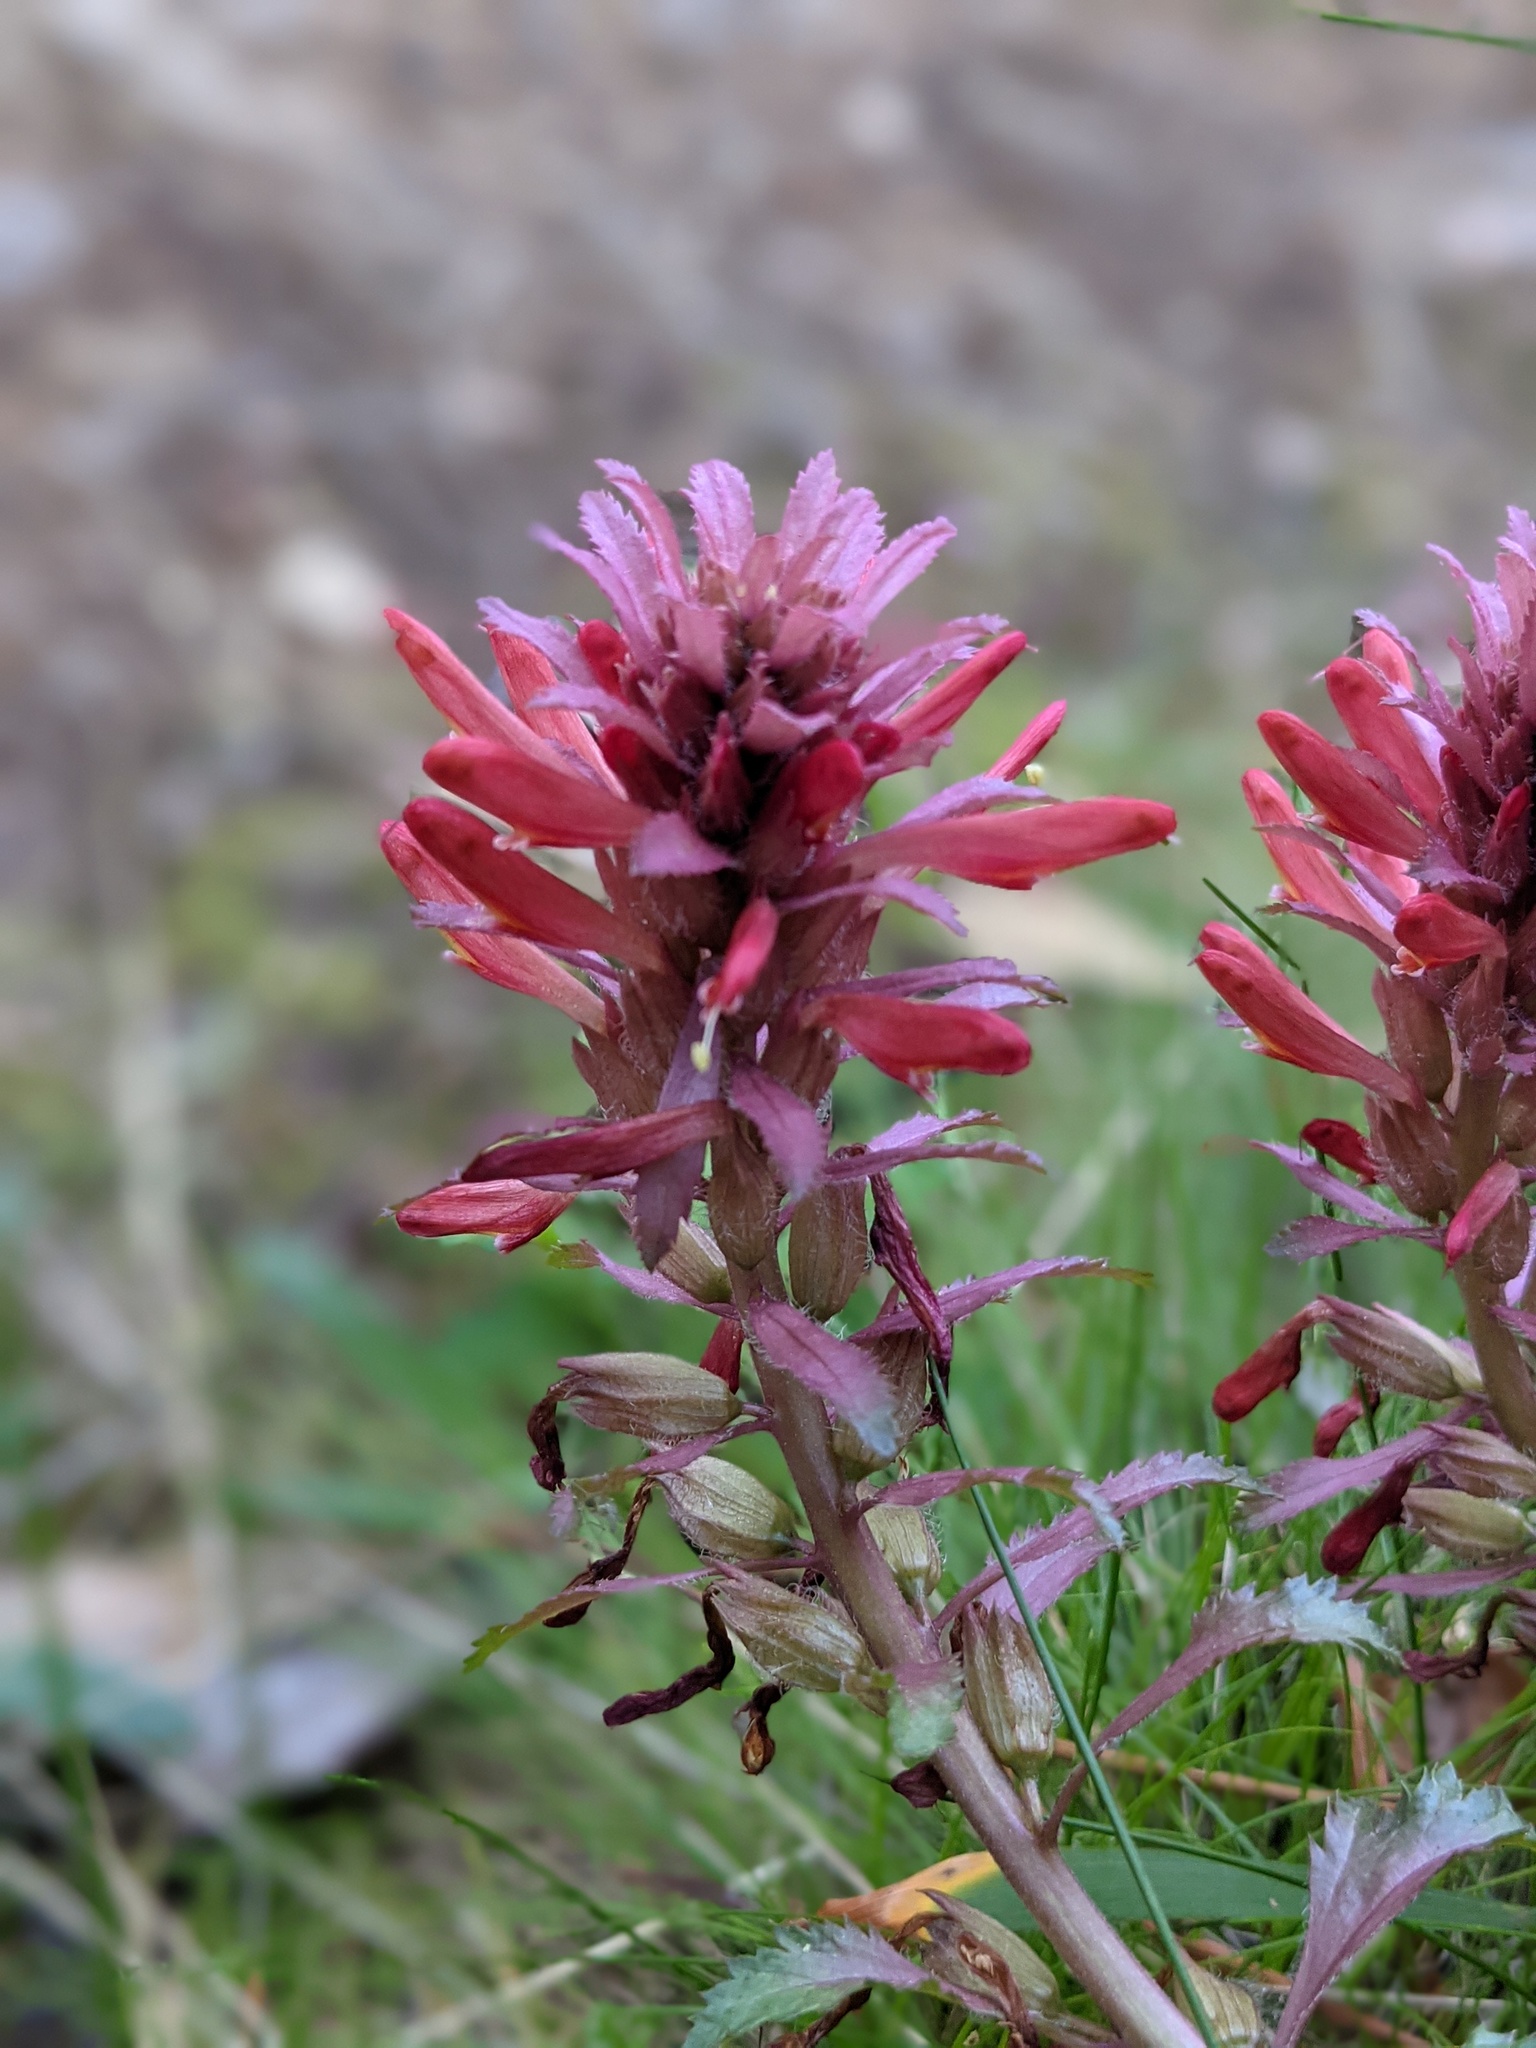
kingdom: Plantae
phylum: Tracheophyta
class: Magnoliopsida
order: Lamiales
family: Orobanchaceae
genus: Pedicularis
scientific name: Pedicularis densiflora
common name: Indian warrior
